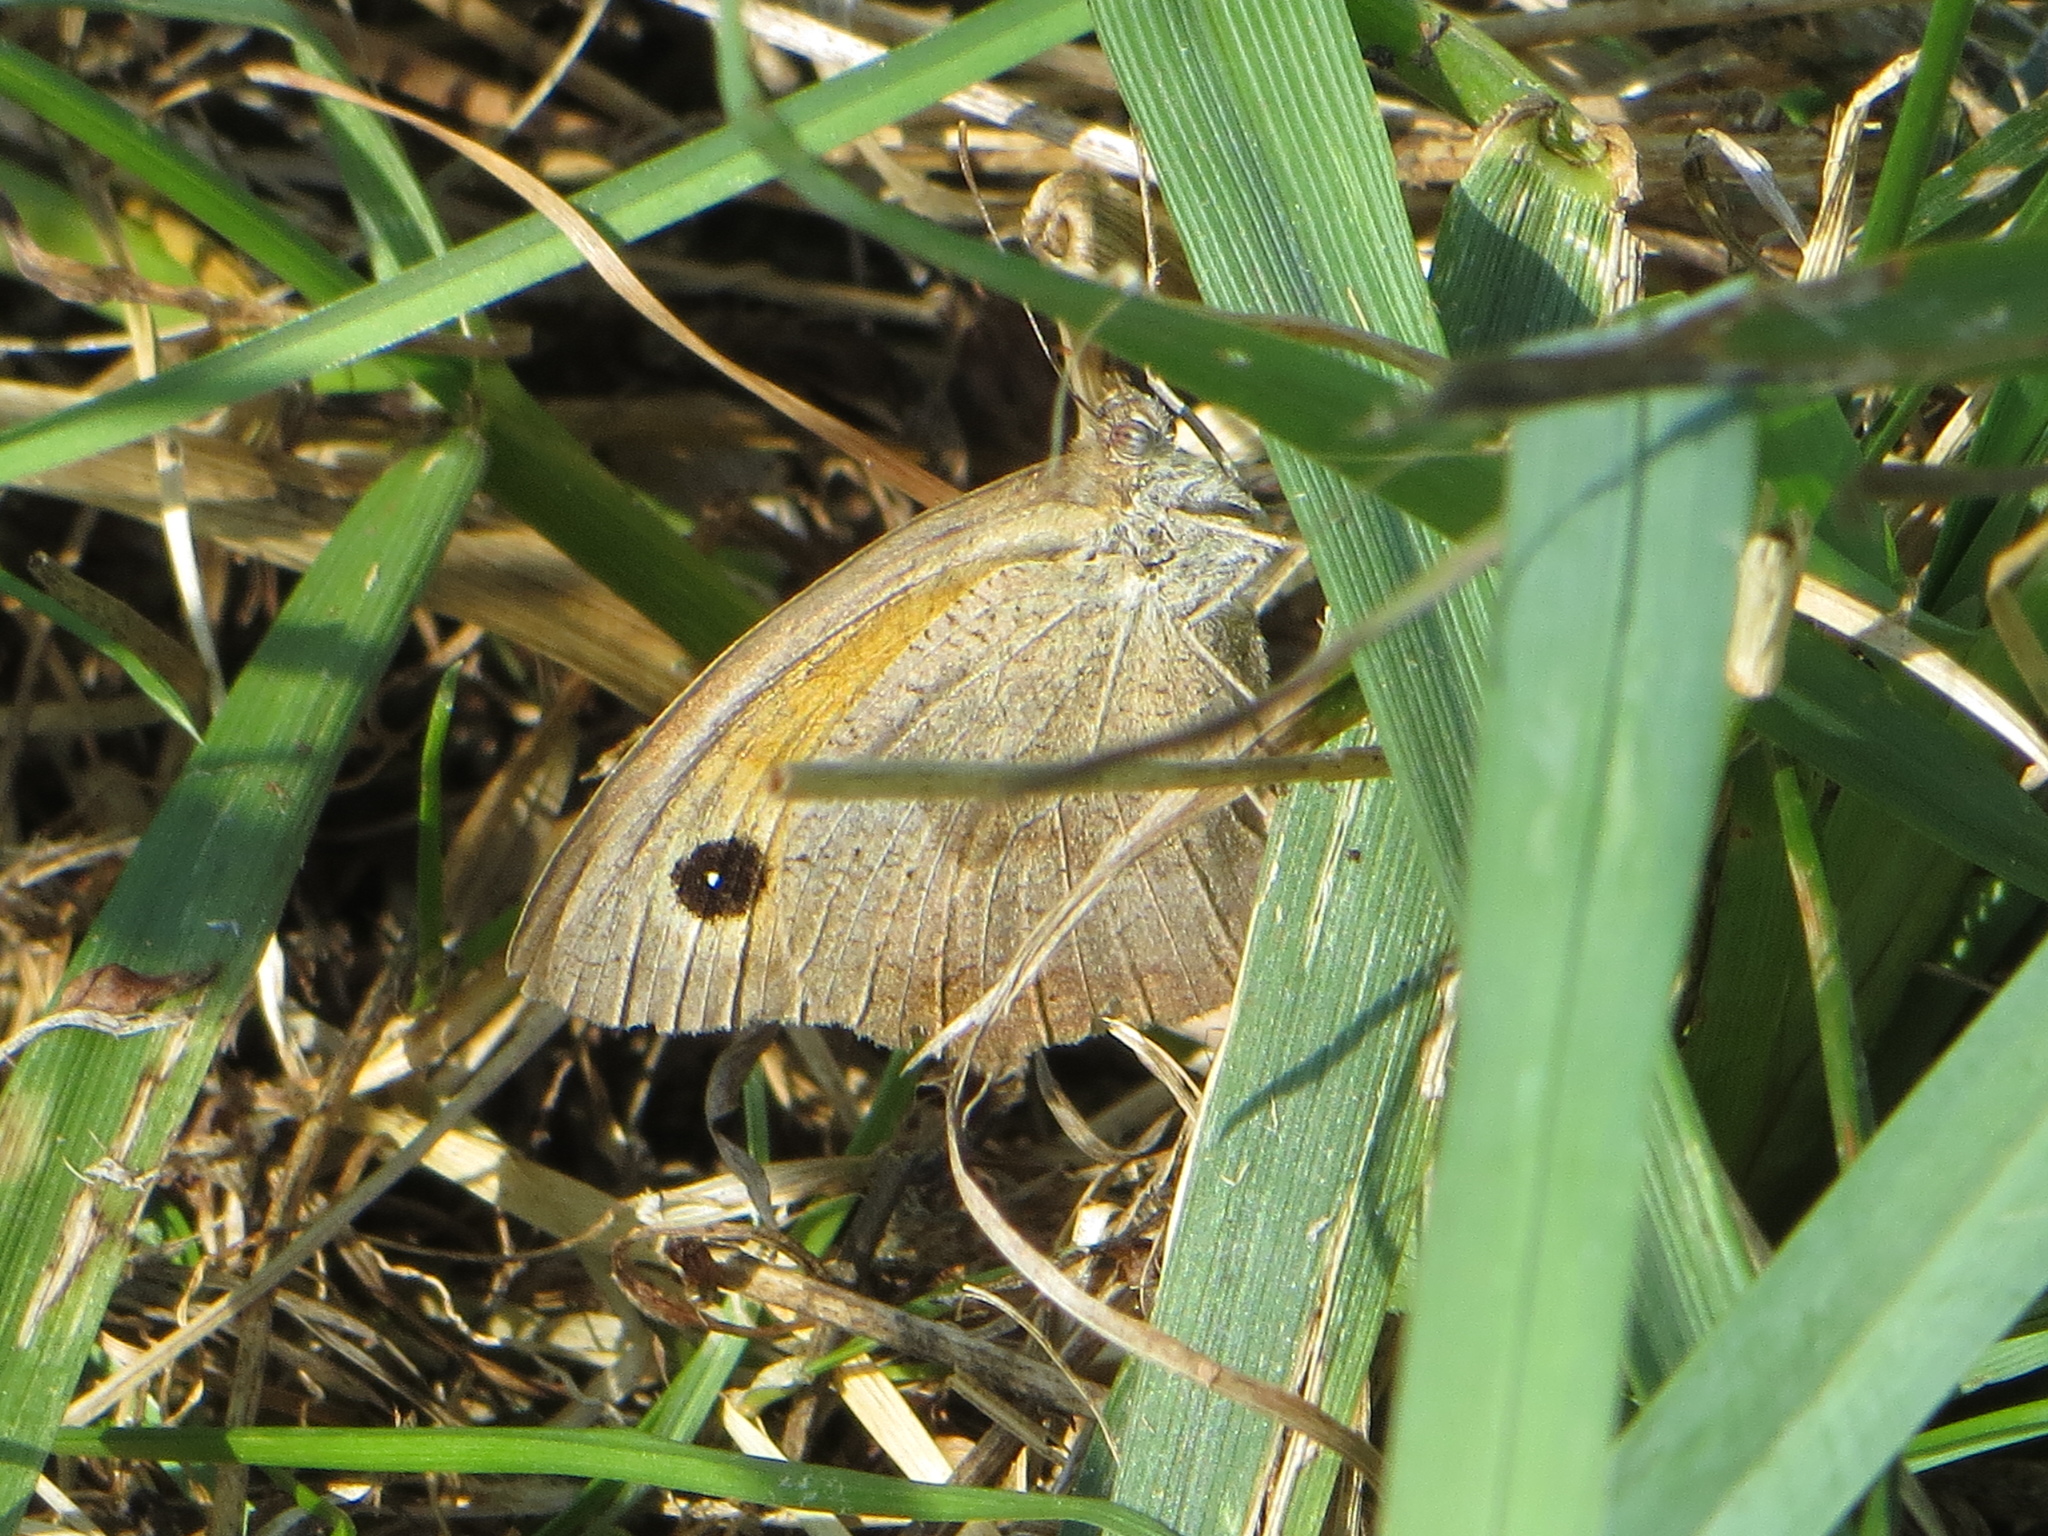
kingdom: Animalia
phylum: Arthropoda
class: Insecta
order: Lepidoptera
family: Nymphalidae
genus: Maniola
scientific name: Maniola jurtina
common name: Meadow brown
